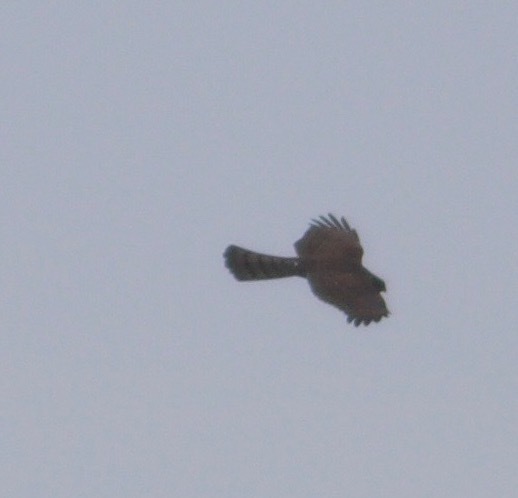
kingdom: Animalia
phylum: Chordata
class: Aves
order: Accipitriformes
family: Accipitridae
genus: Accipiter
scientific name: Accipiter nisus
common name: Eurasian sparrowhawk
